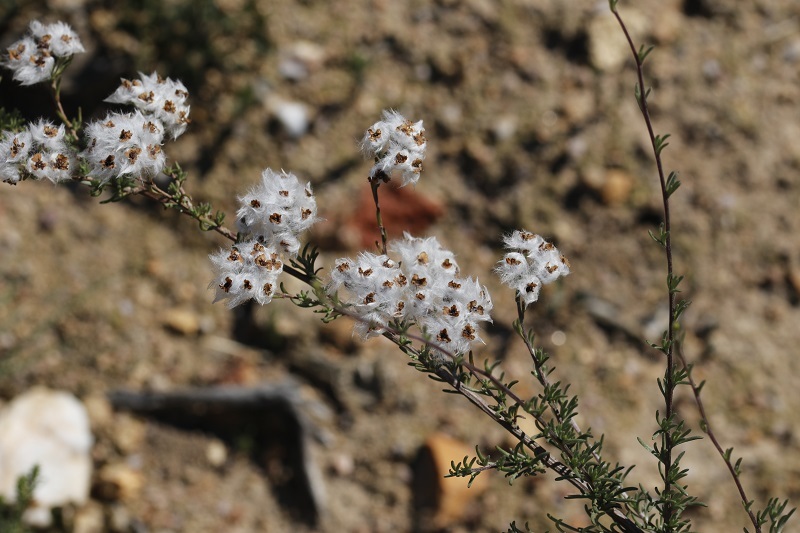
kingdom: Plantae
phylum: Tracheophyta
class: Magnoliopsida
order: Asterales
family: Asteraceae
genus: Eriocephalus
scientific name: Eriocephalus africanus
